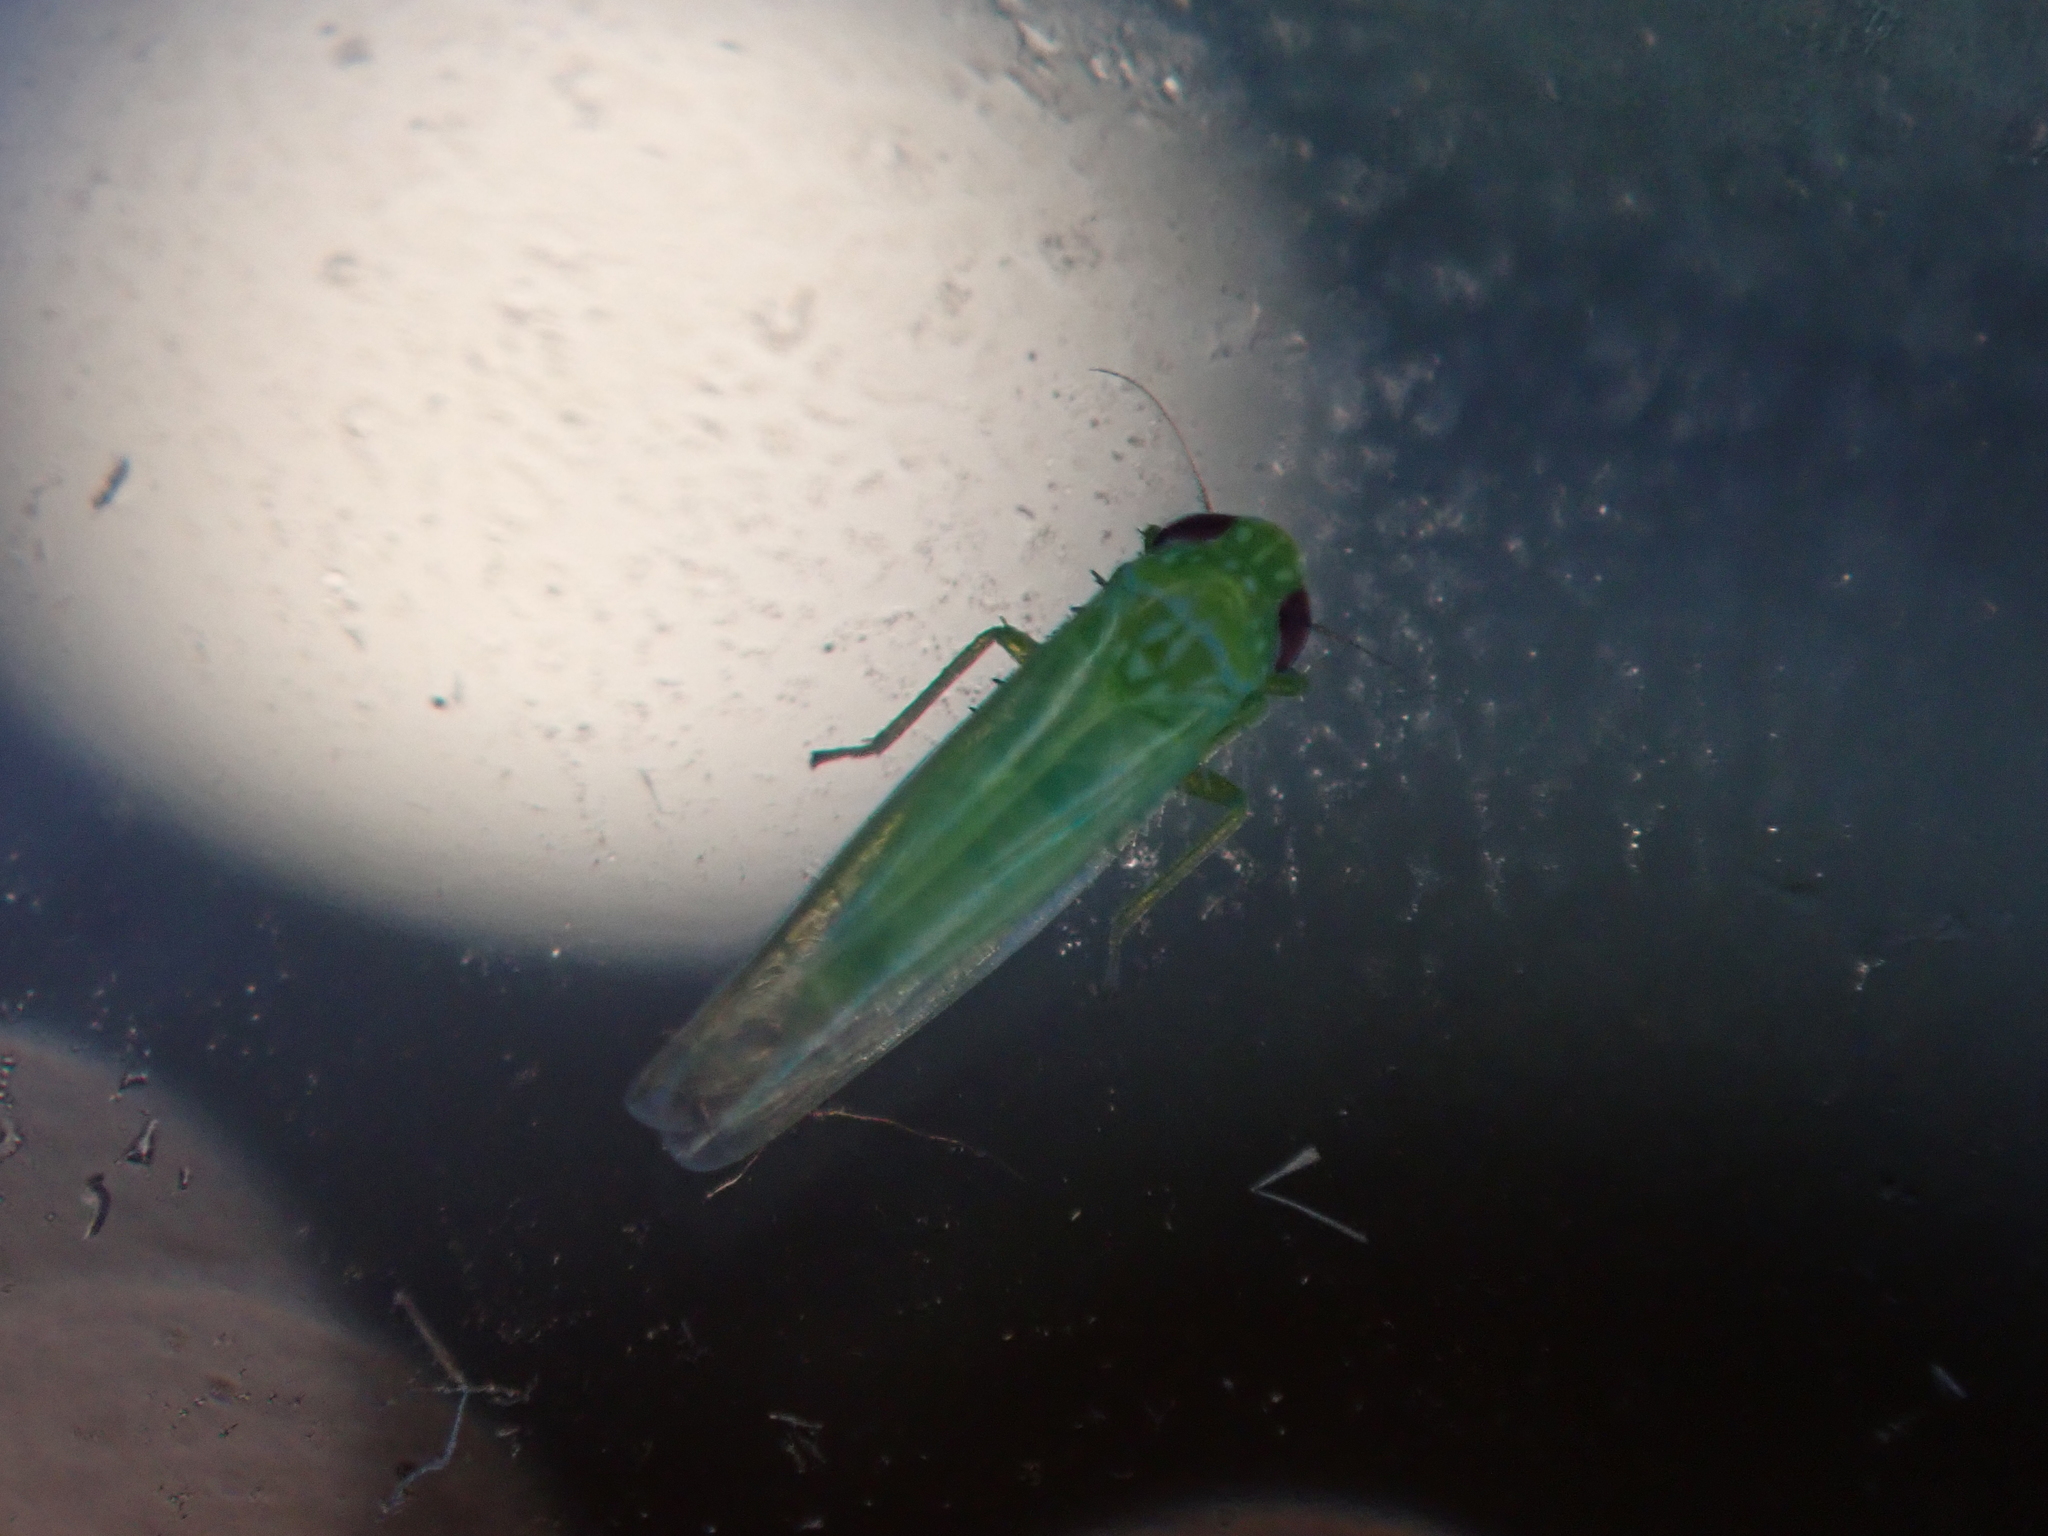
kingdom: Animalia
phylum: Arthropoda
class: Insecta
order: Hemiptera
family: Cicadellidae
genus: Empoasca
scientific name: Empoasca fabae
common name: Potato leafhopper
